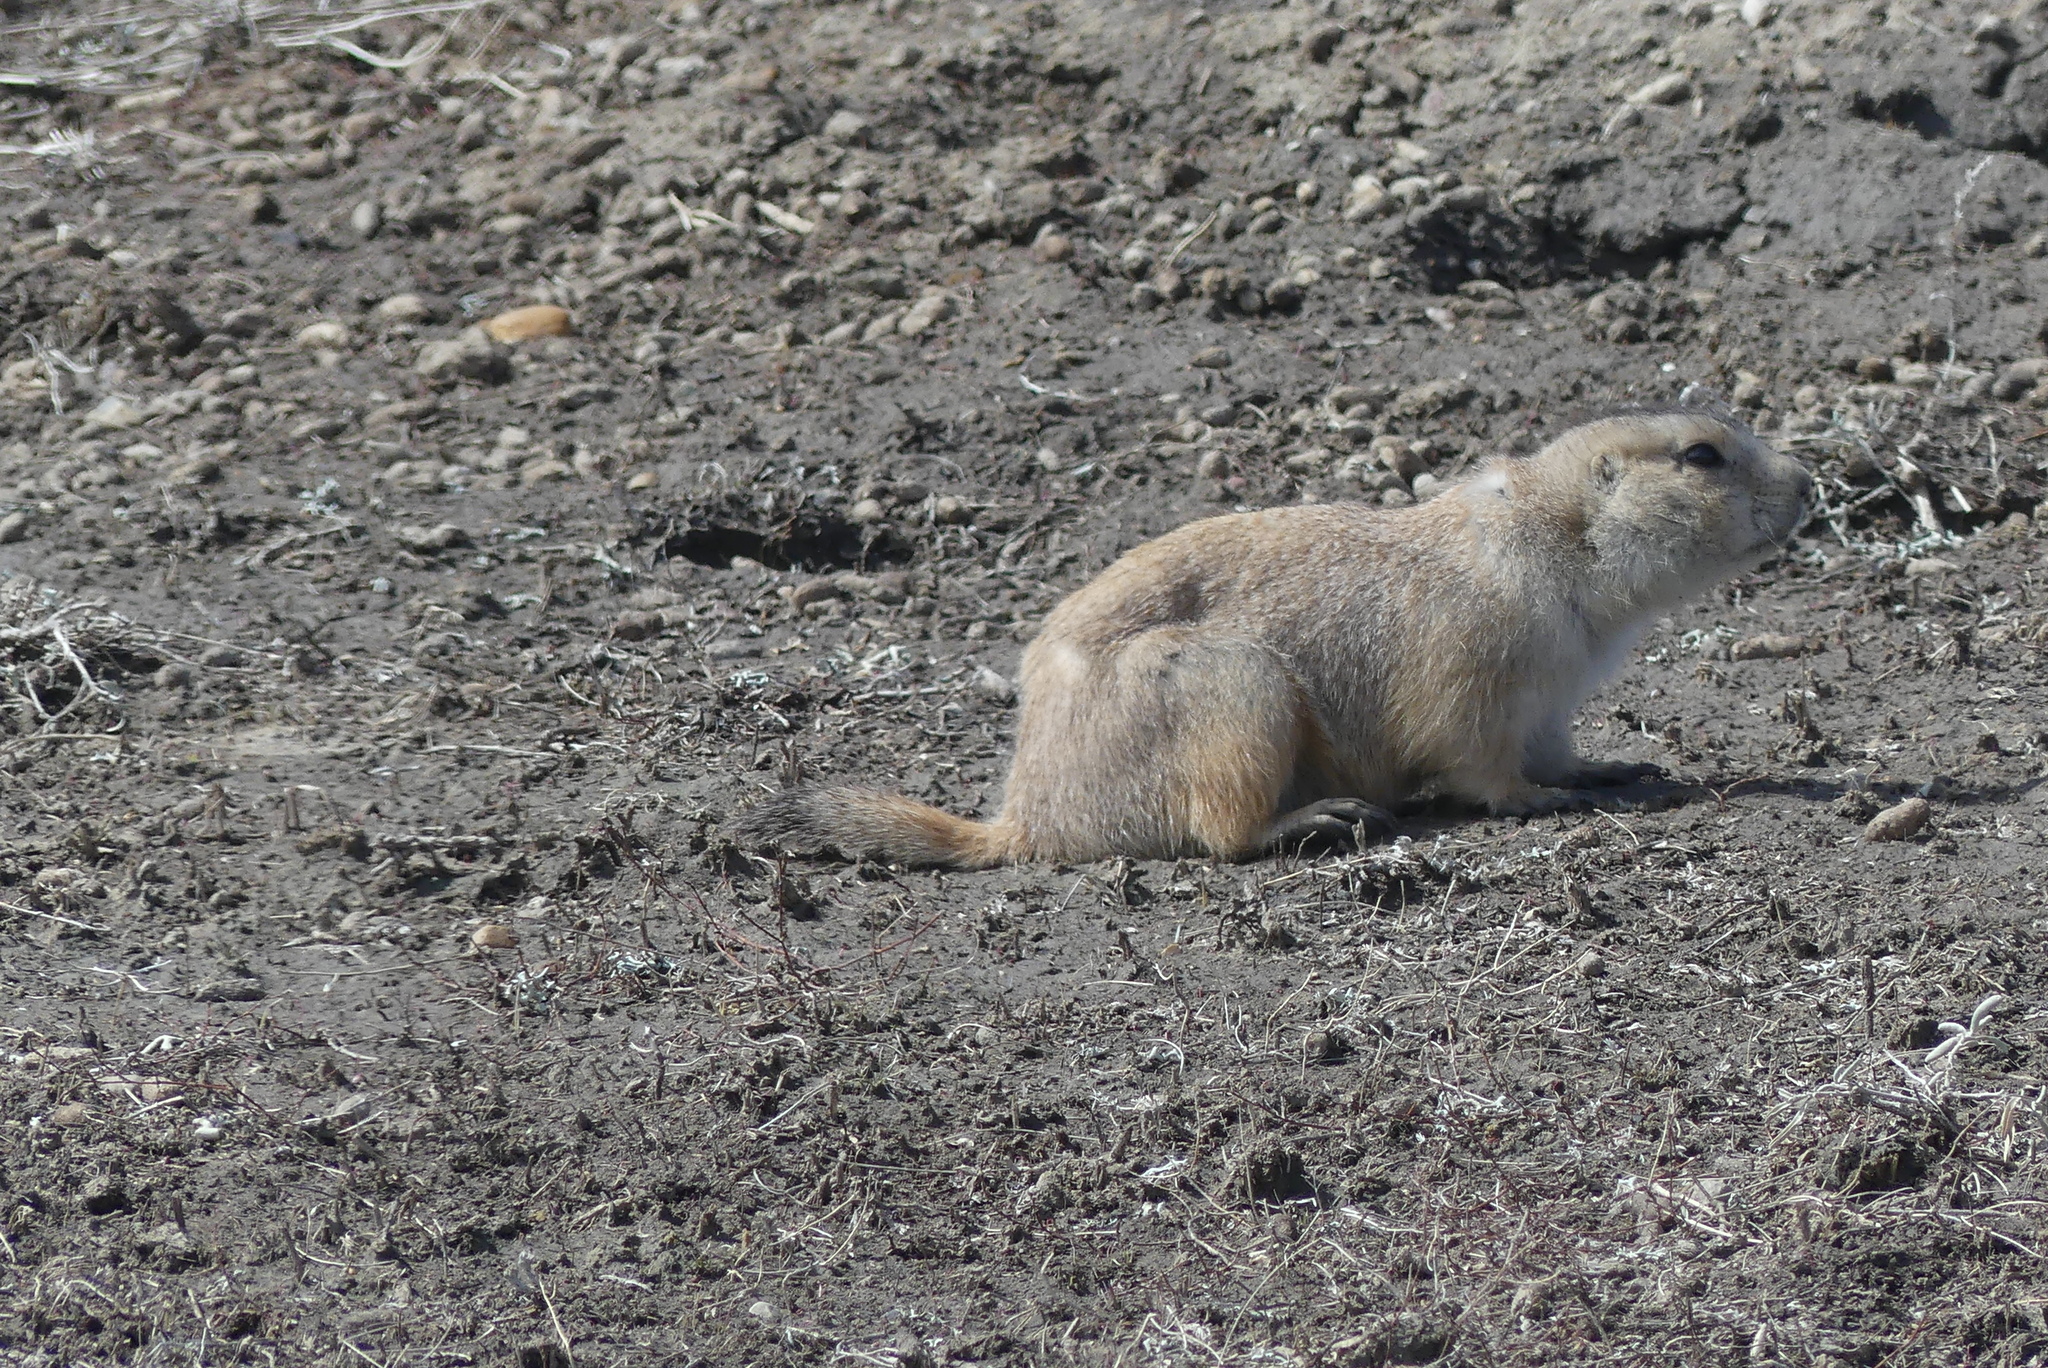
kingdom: Animalia
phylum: Chordata
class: Mammalia
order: Rodentia
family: Sciuridae
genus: Cynomys
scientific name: Cynomys ludovicianus
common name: Black-tailed prairie dog
